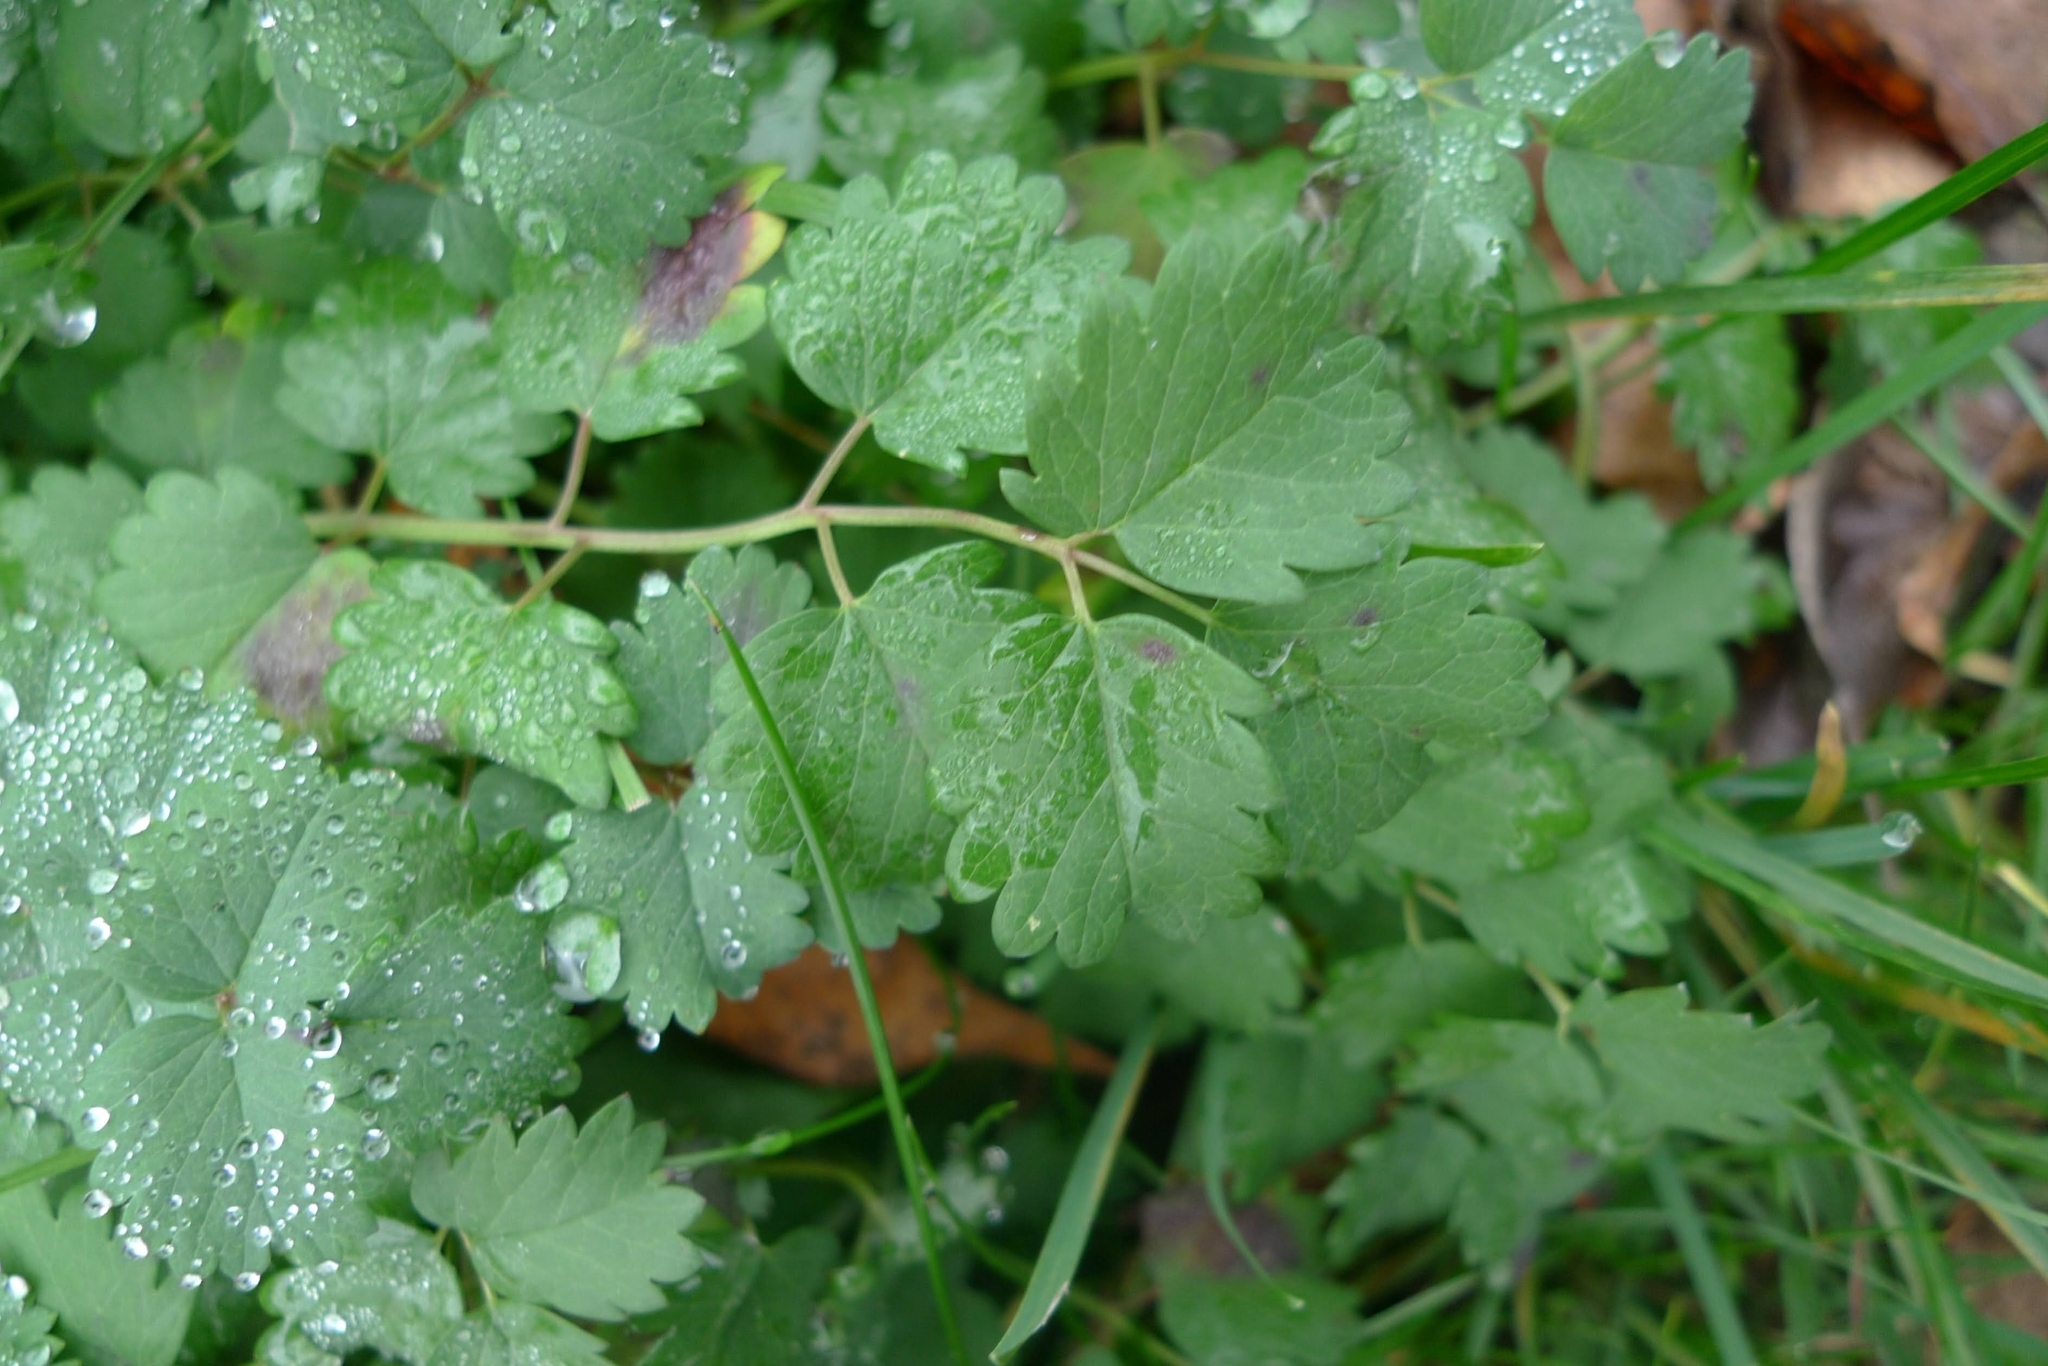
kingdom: Plantae
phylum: Tracheophyta
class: Magnoliopsida
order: Rosales
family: Rosaceae
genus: Poterium
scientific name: Poterium sanguisorba
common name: Salad burnet
